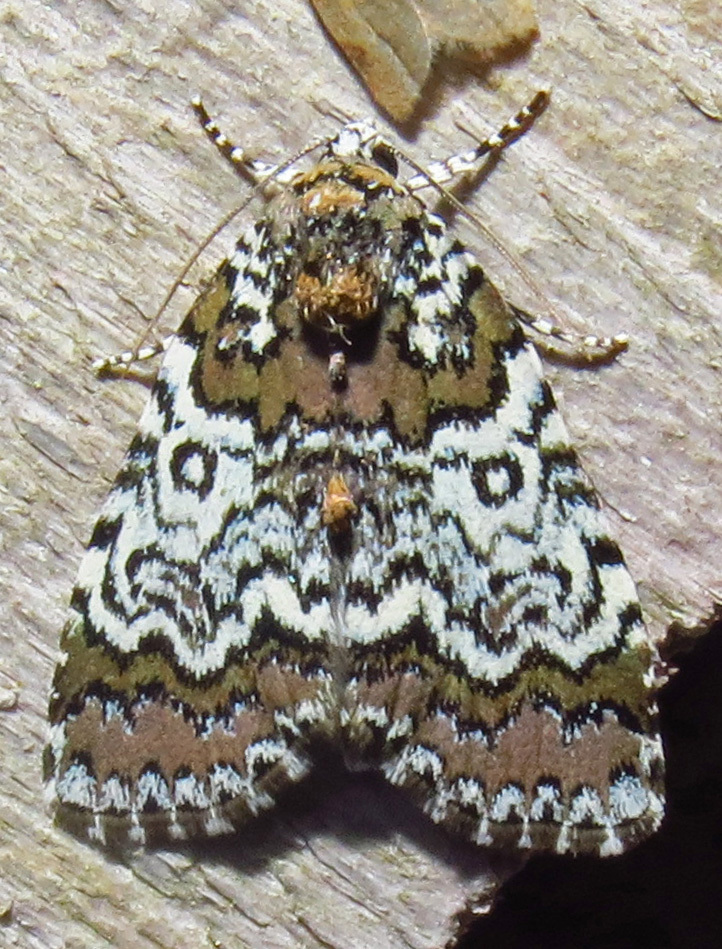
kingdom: Animalia
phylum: Arthropoda
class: Insecta
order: Lepidoptera
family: Noctuidae
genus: Cerma
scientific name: Cerma cora
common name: Bird dropping moth
